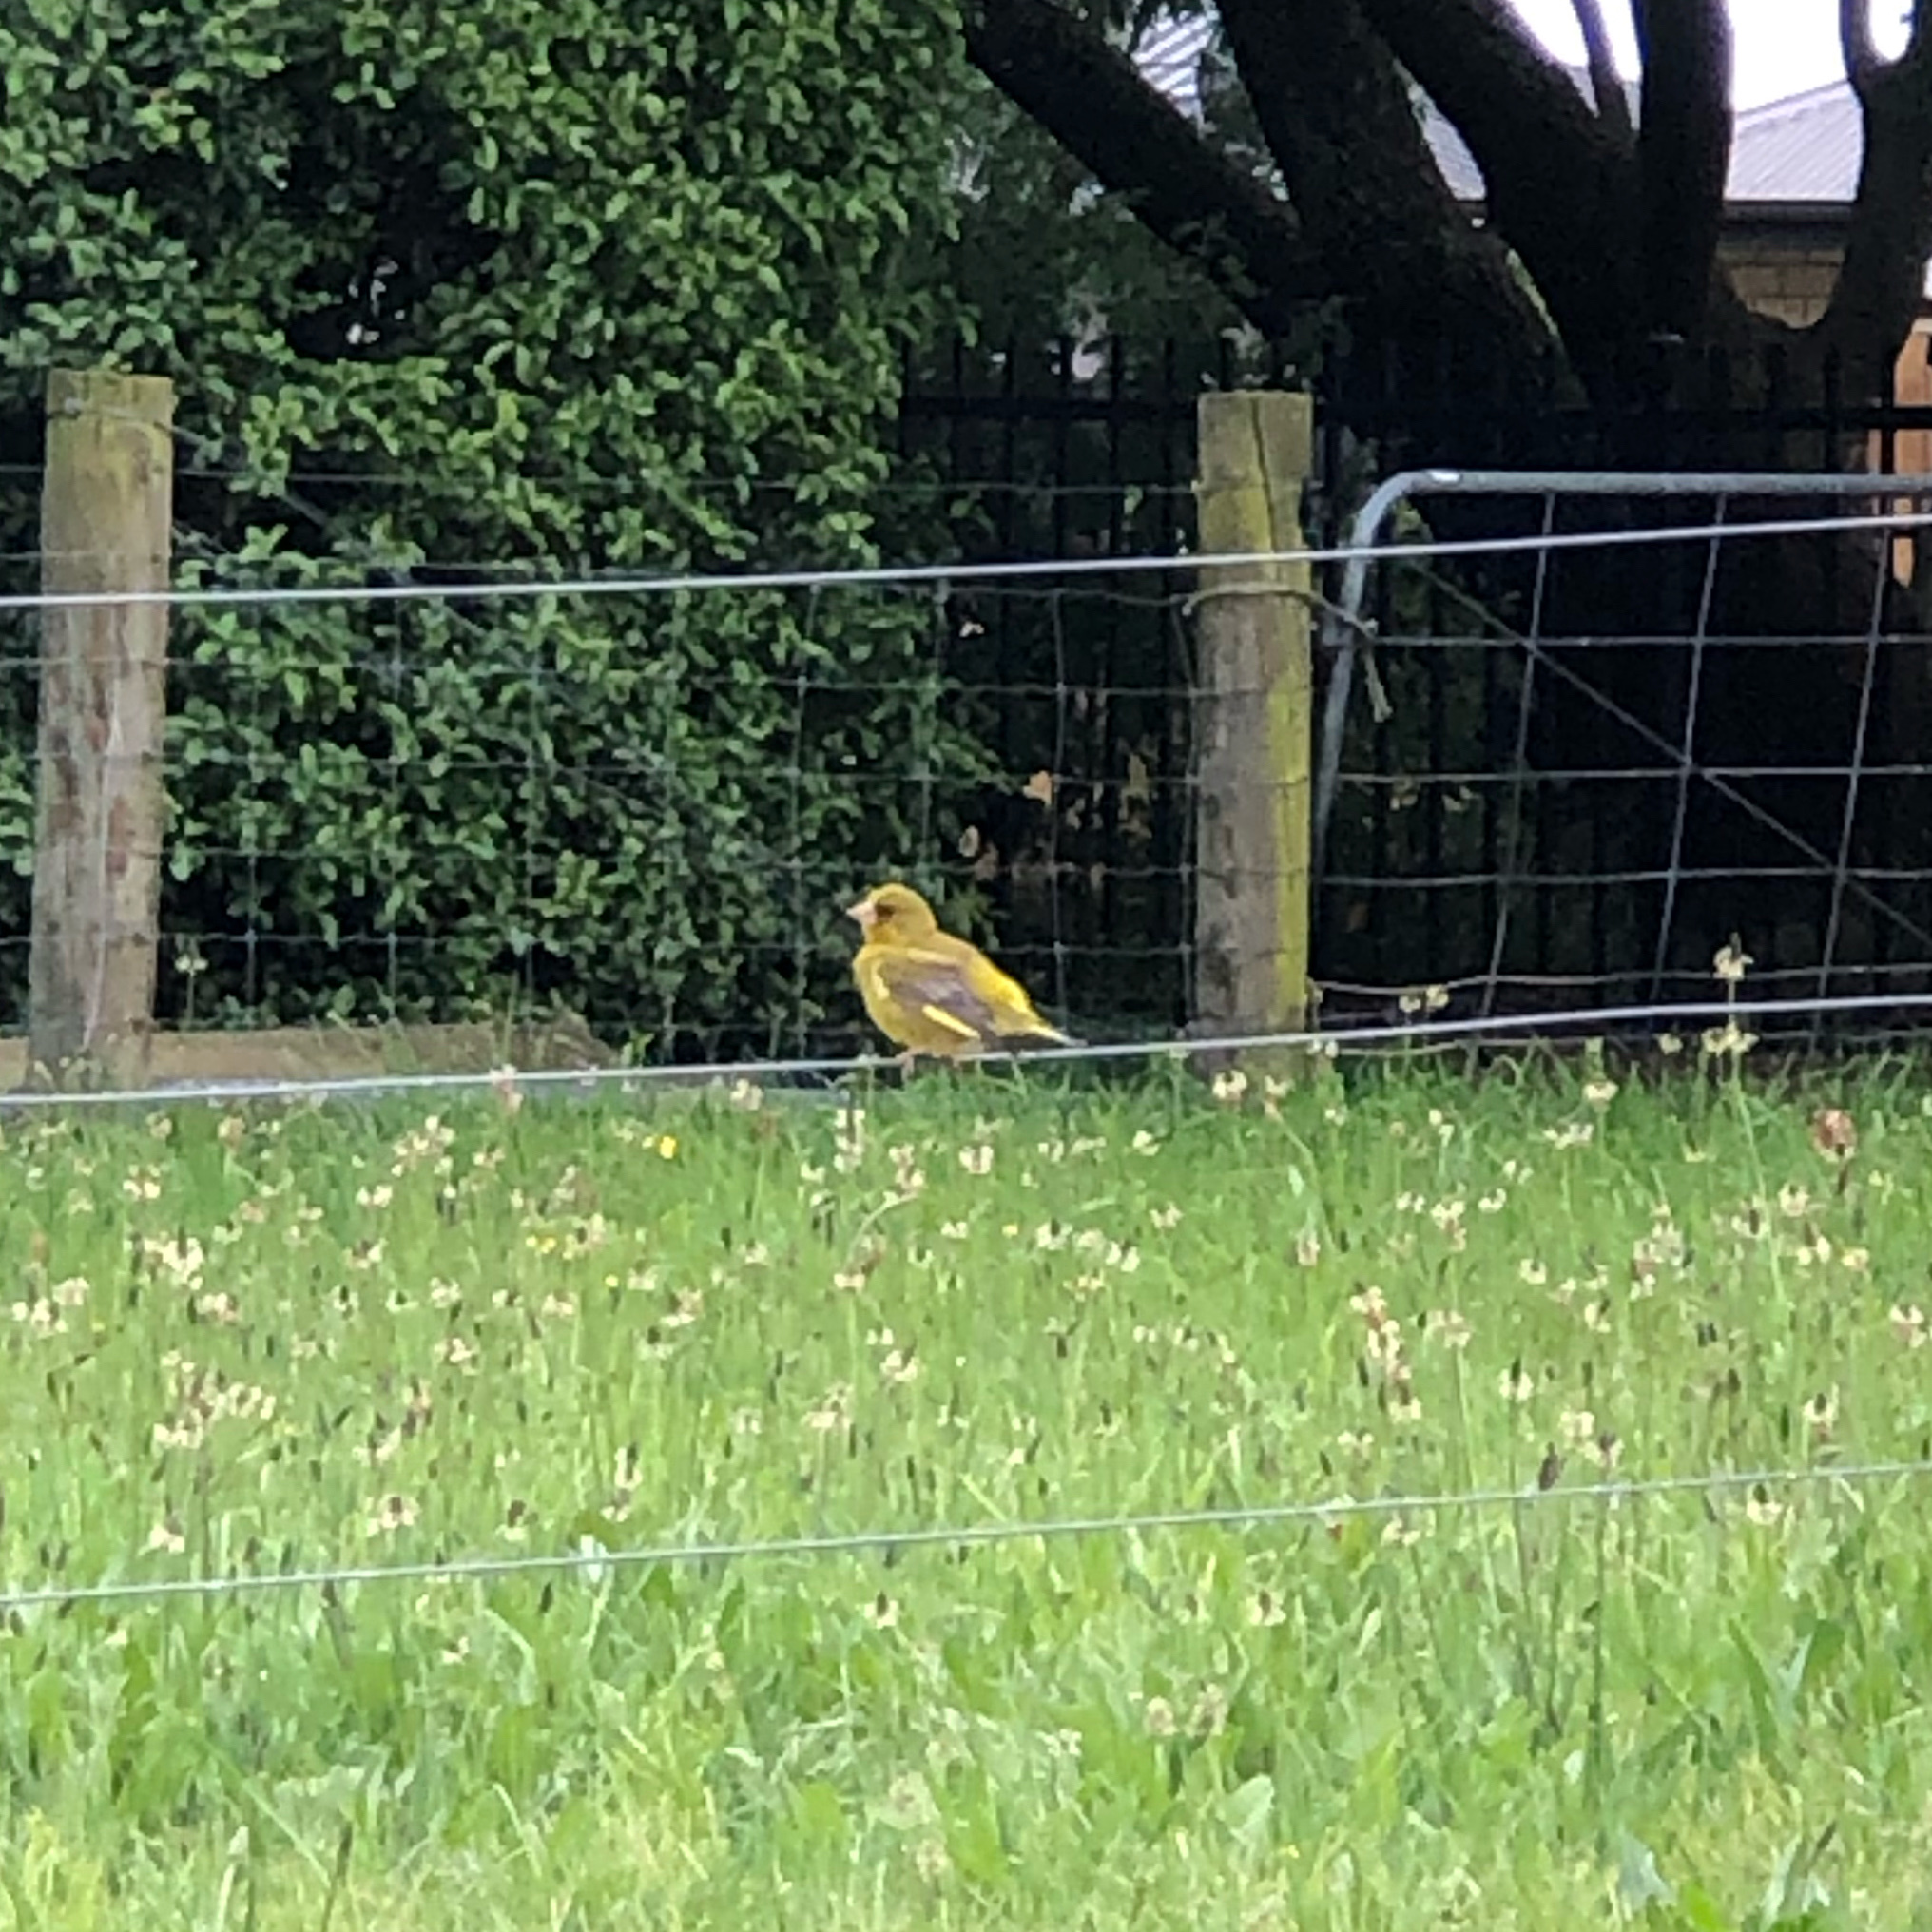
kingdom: Plantae
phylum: Tracheophyta
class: Liliopsida
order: Poales
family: Poaceae
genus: Chloris
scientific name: Chloris chloris
